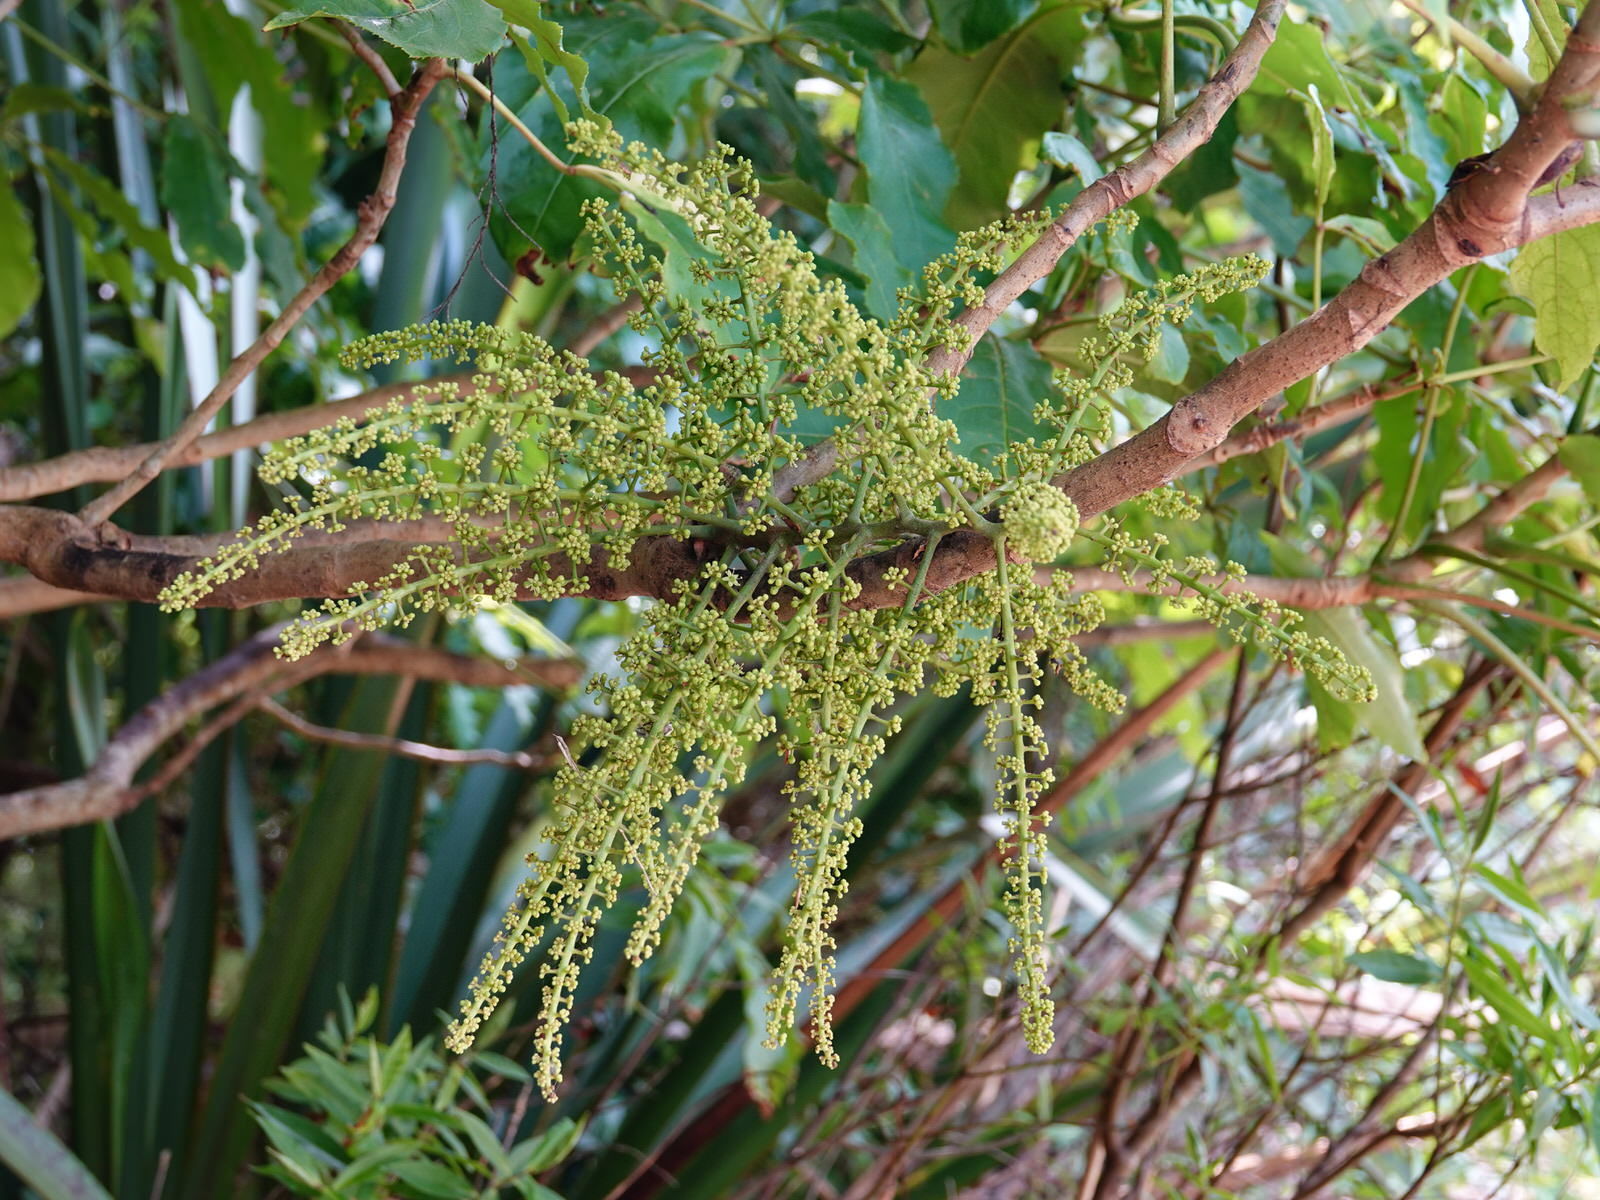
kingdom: Plantae
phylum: Tracheophyta
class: Magnoliopsida
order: Apiales
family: Araliaceae
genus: Schefflera
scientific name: Schefflera digitata
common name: Pate
